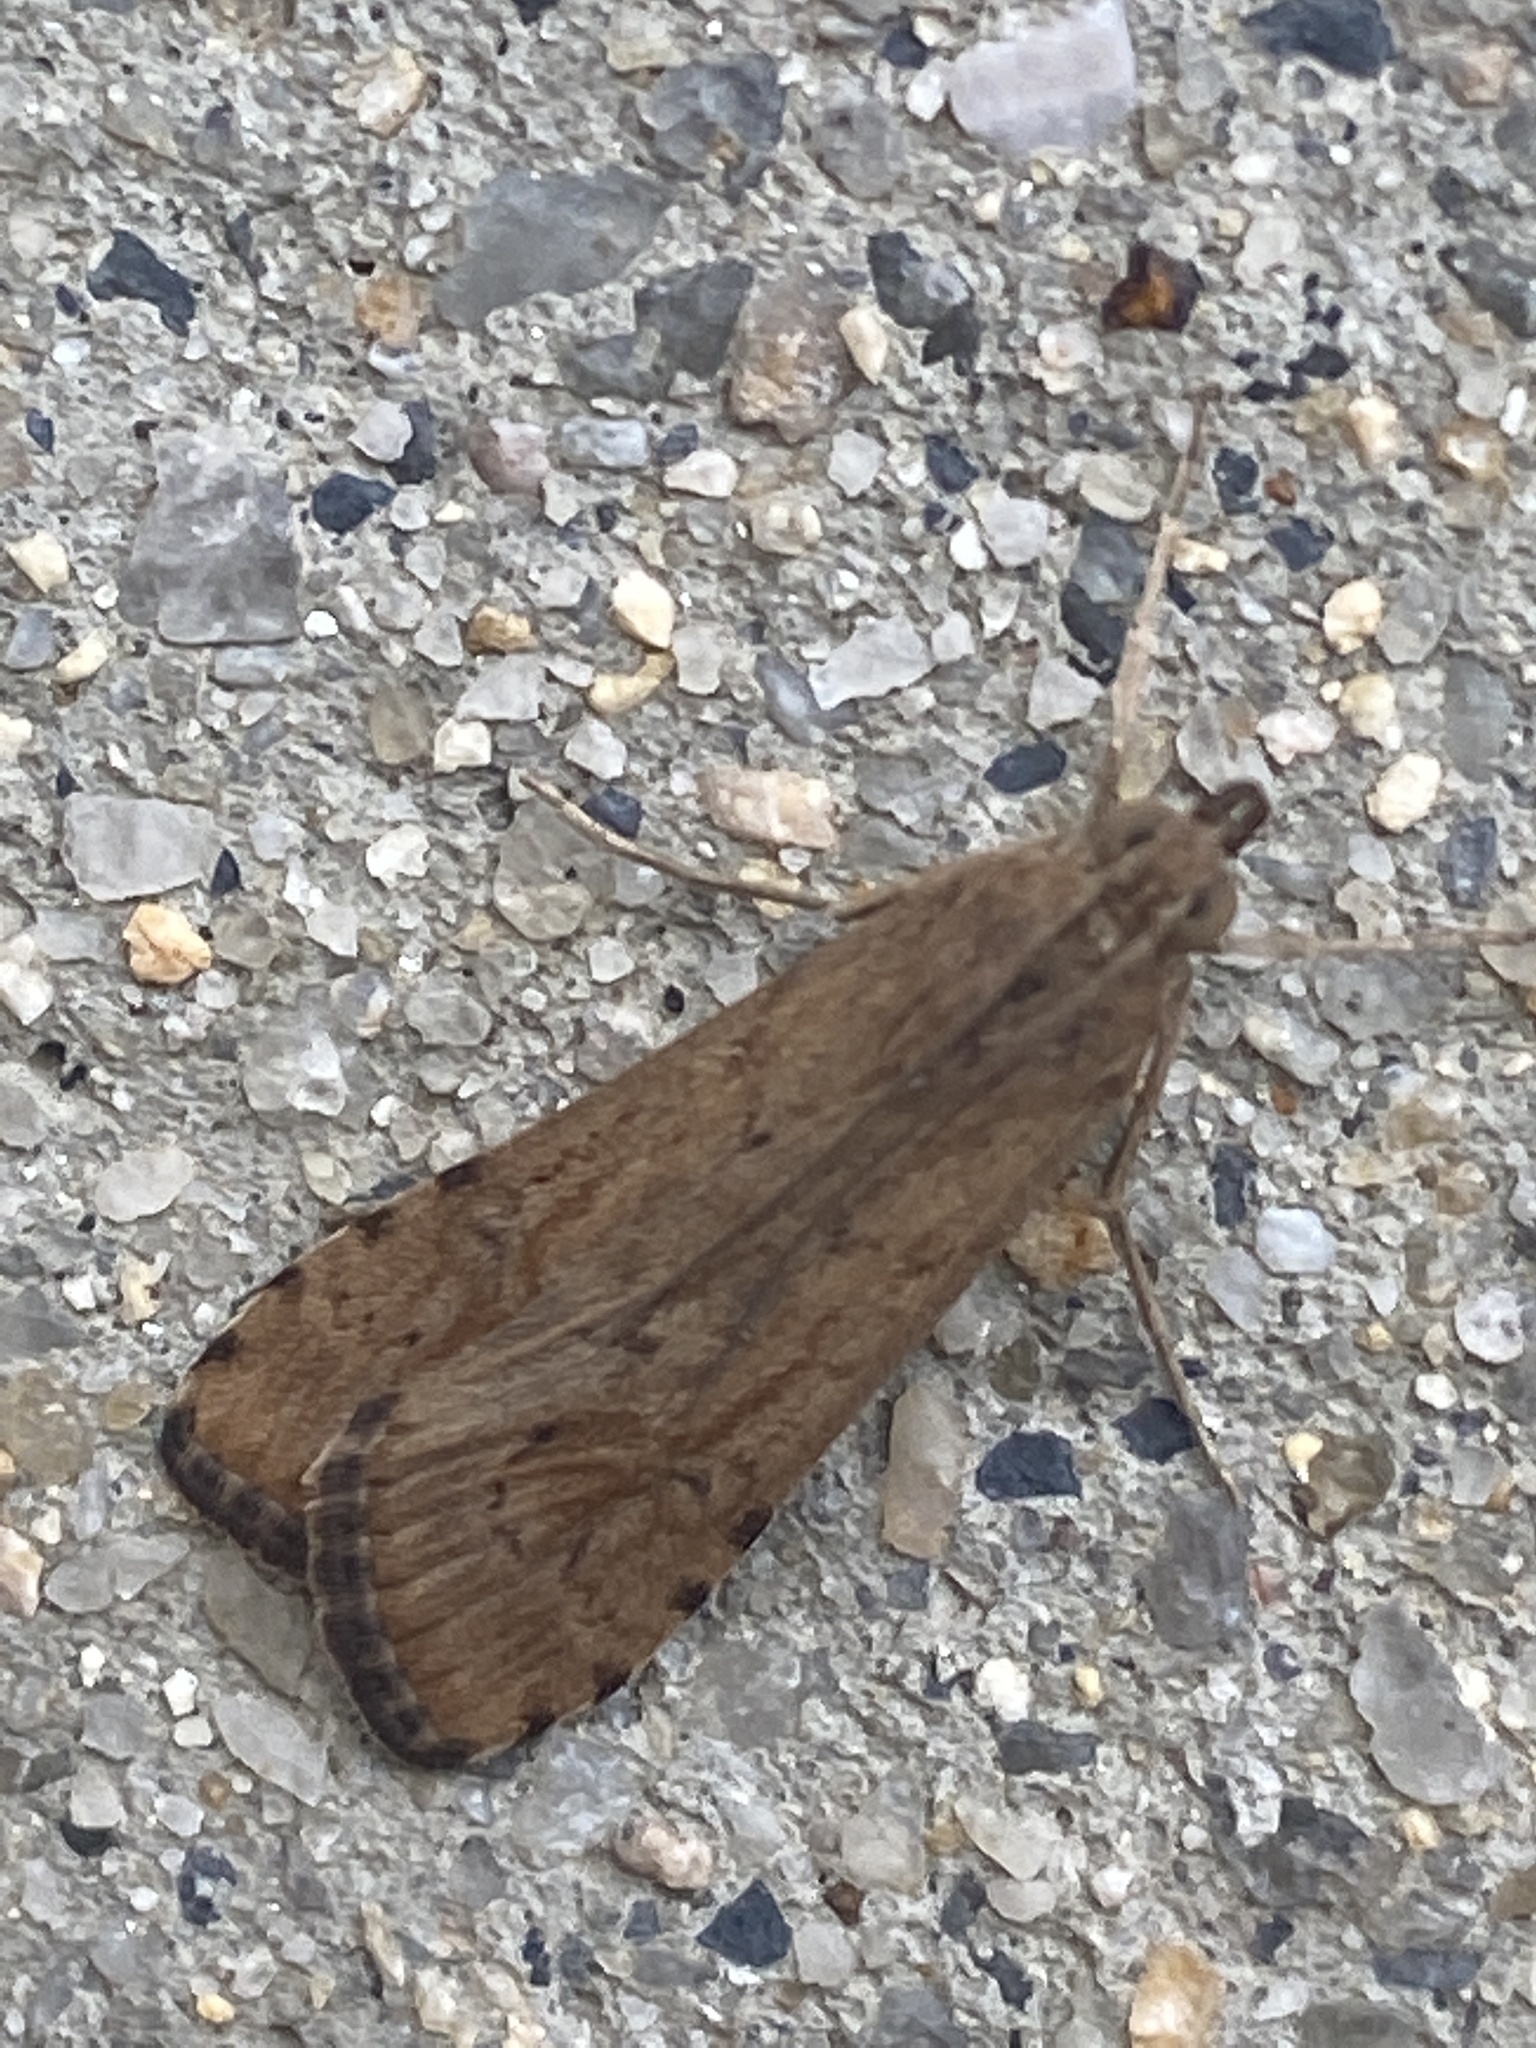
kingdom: Animalia
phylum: Arthropoda
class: Insecta
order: Lepidoptera
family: Crambidae
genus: Nomophila
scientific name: Nomophila noctuella
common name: Rush veneer
